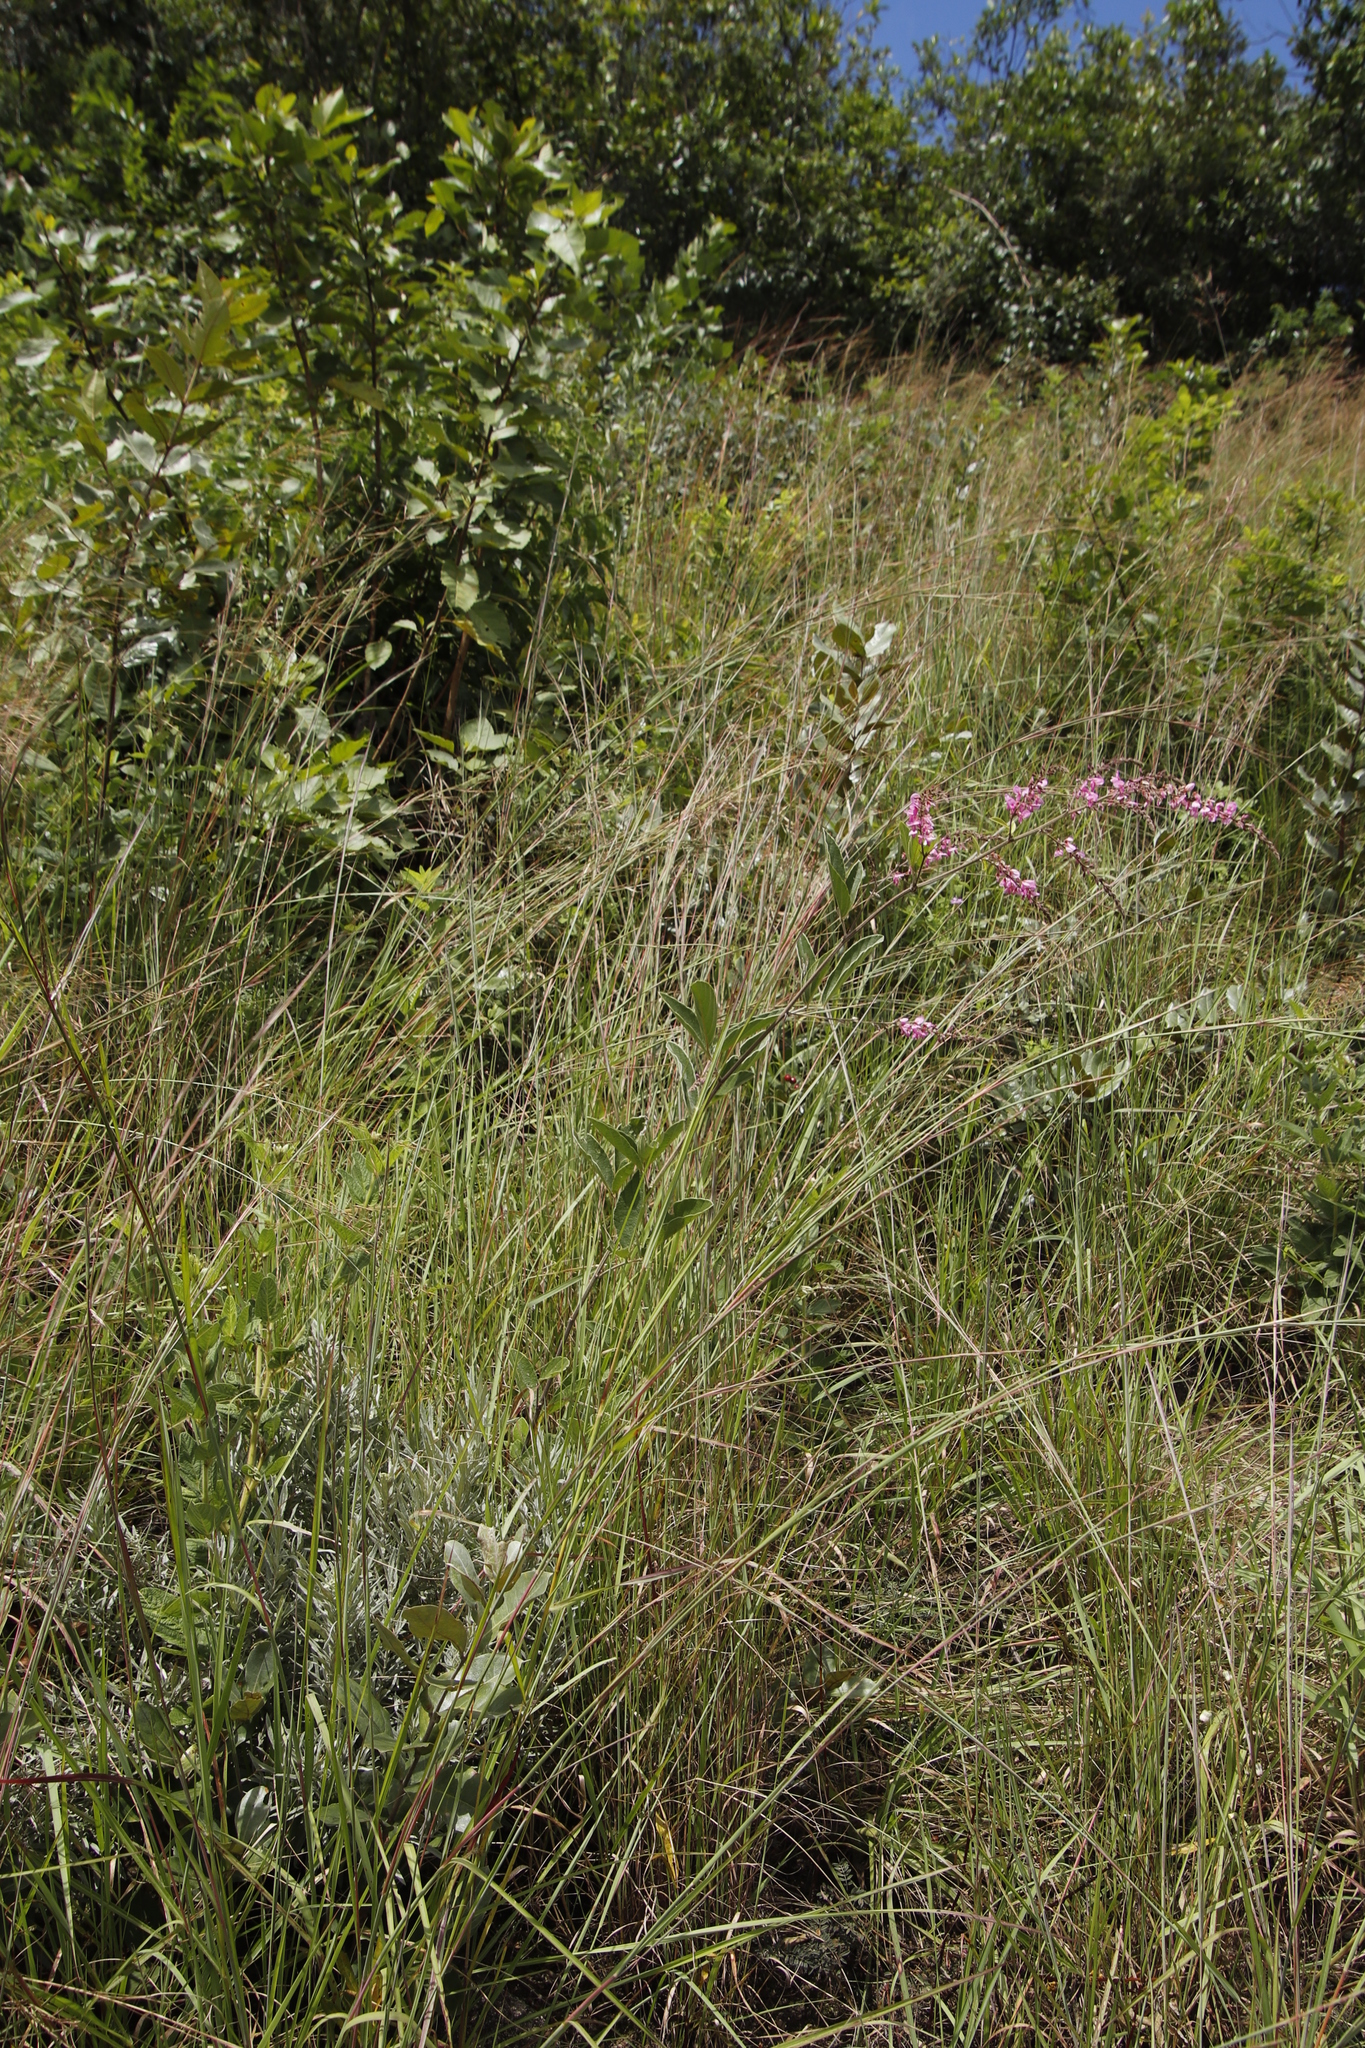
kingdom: Plantae
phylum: Tracheophyta
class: Magnoliopsida
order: Fabales
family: Fabaceae
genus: Pseudarthria
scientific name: Pseudarthria hookeri
